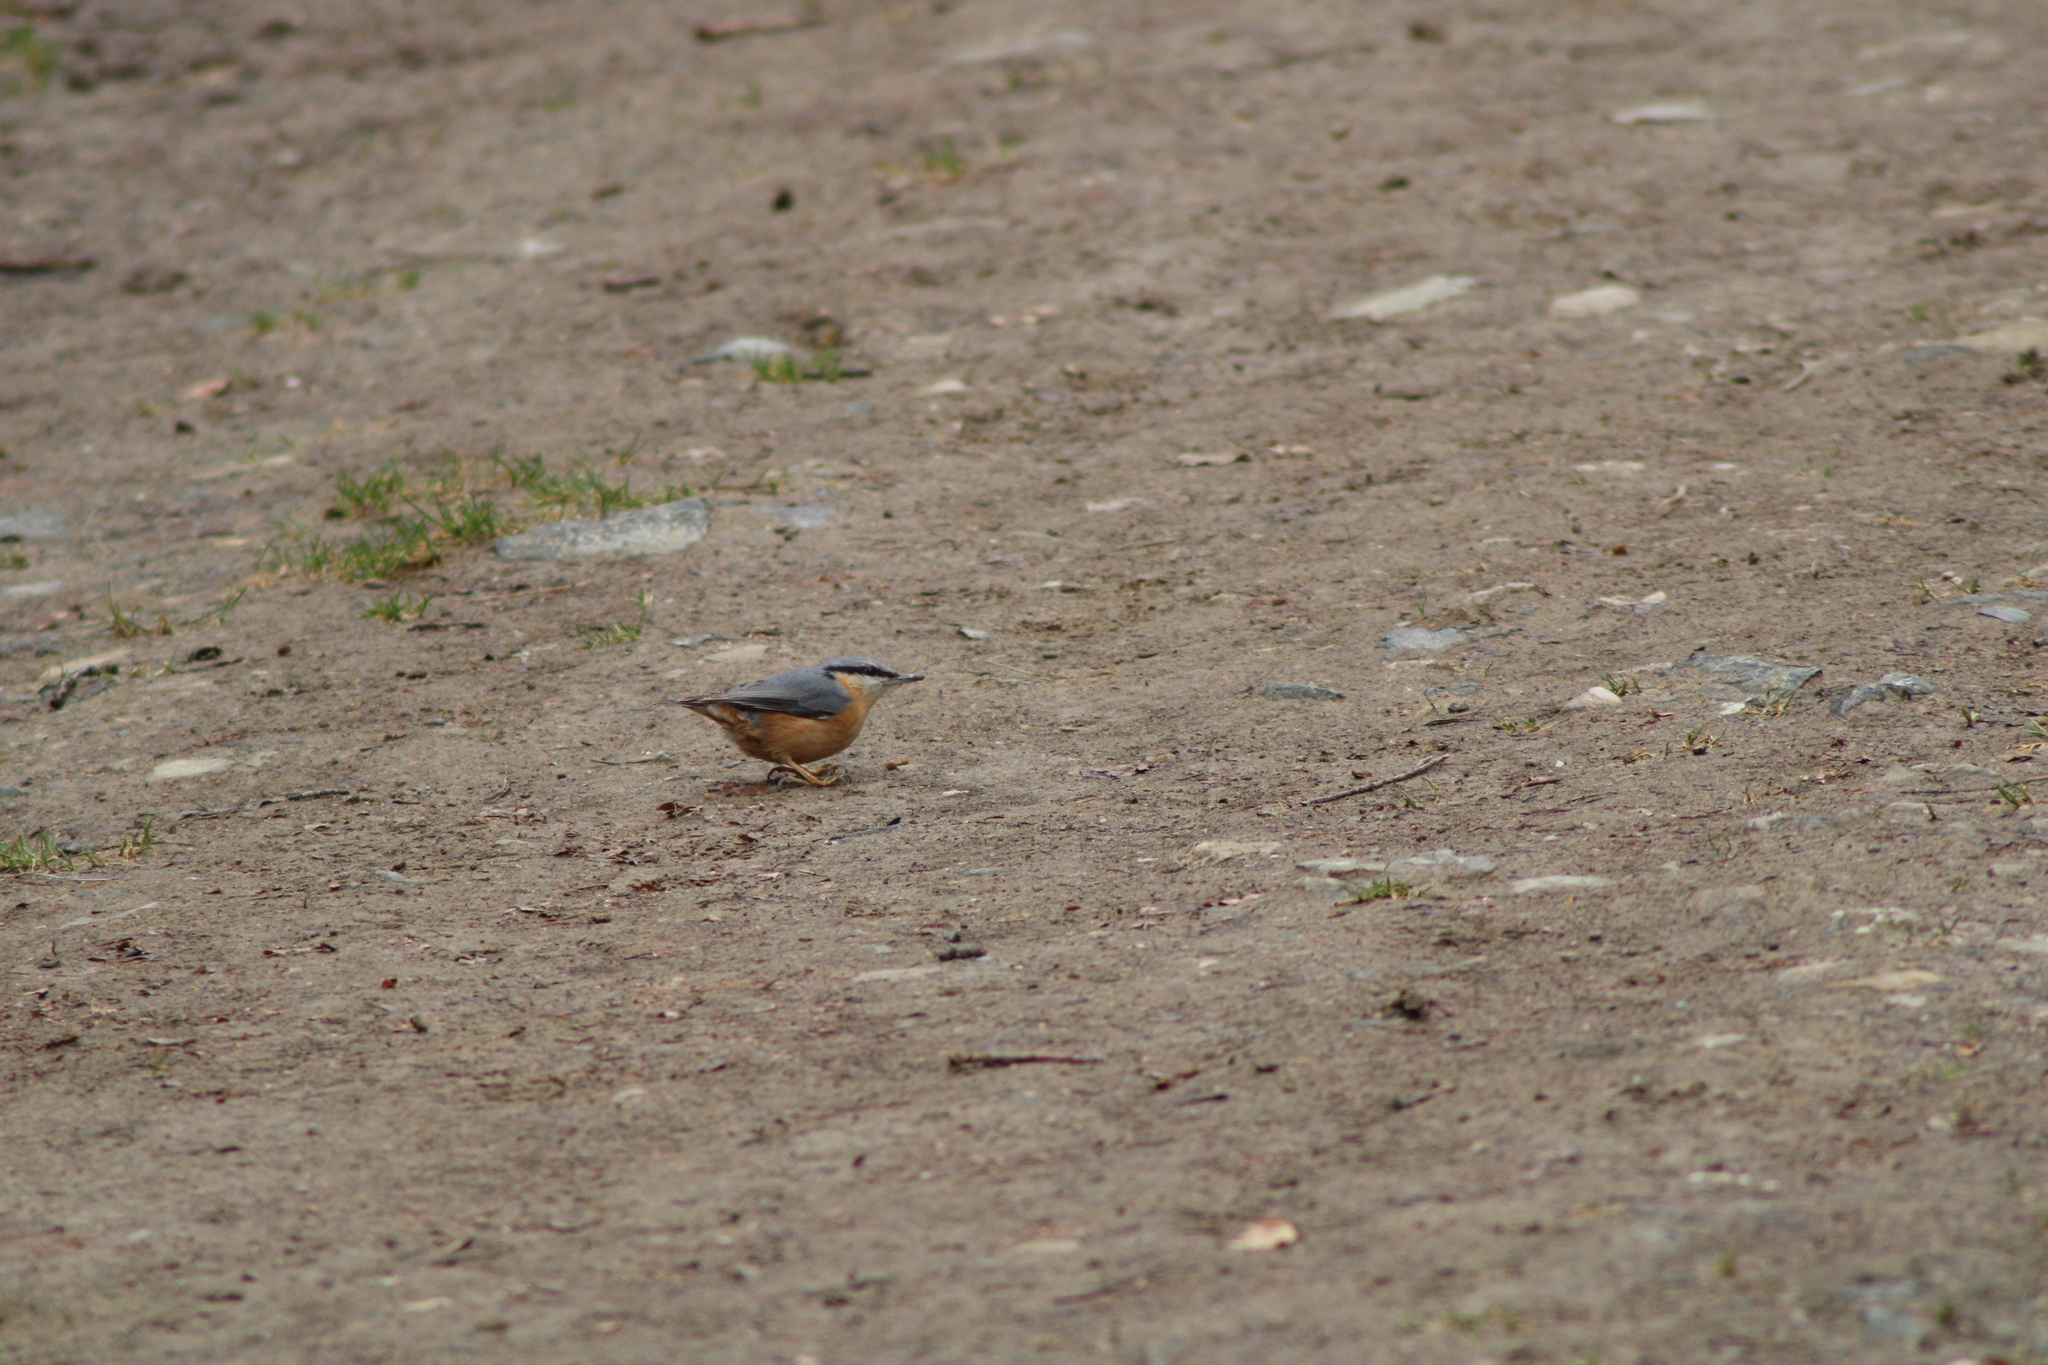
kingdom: Animalia
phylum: Chordata
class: Aves
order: Passeriformes
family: Sittidae
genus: Sitta
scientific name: Sitta europaea
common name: Eurasian nuthatch
